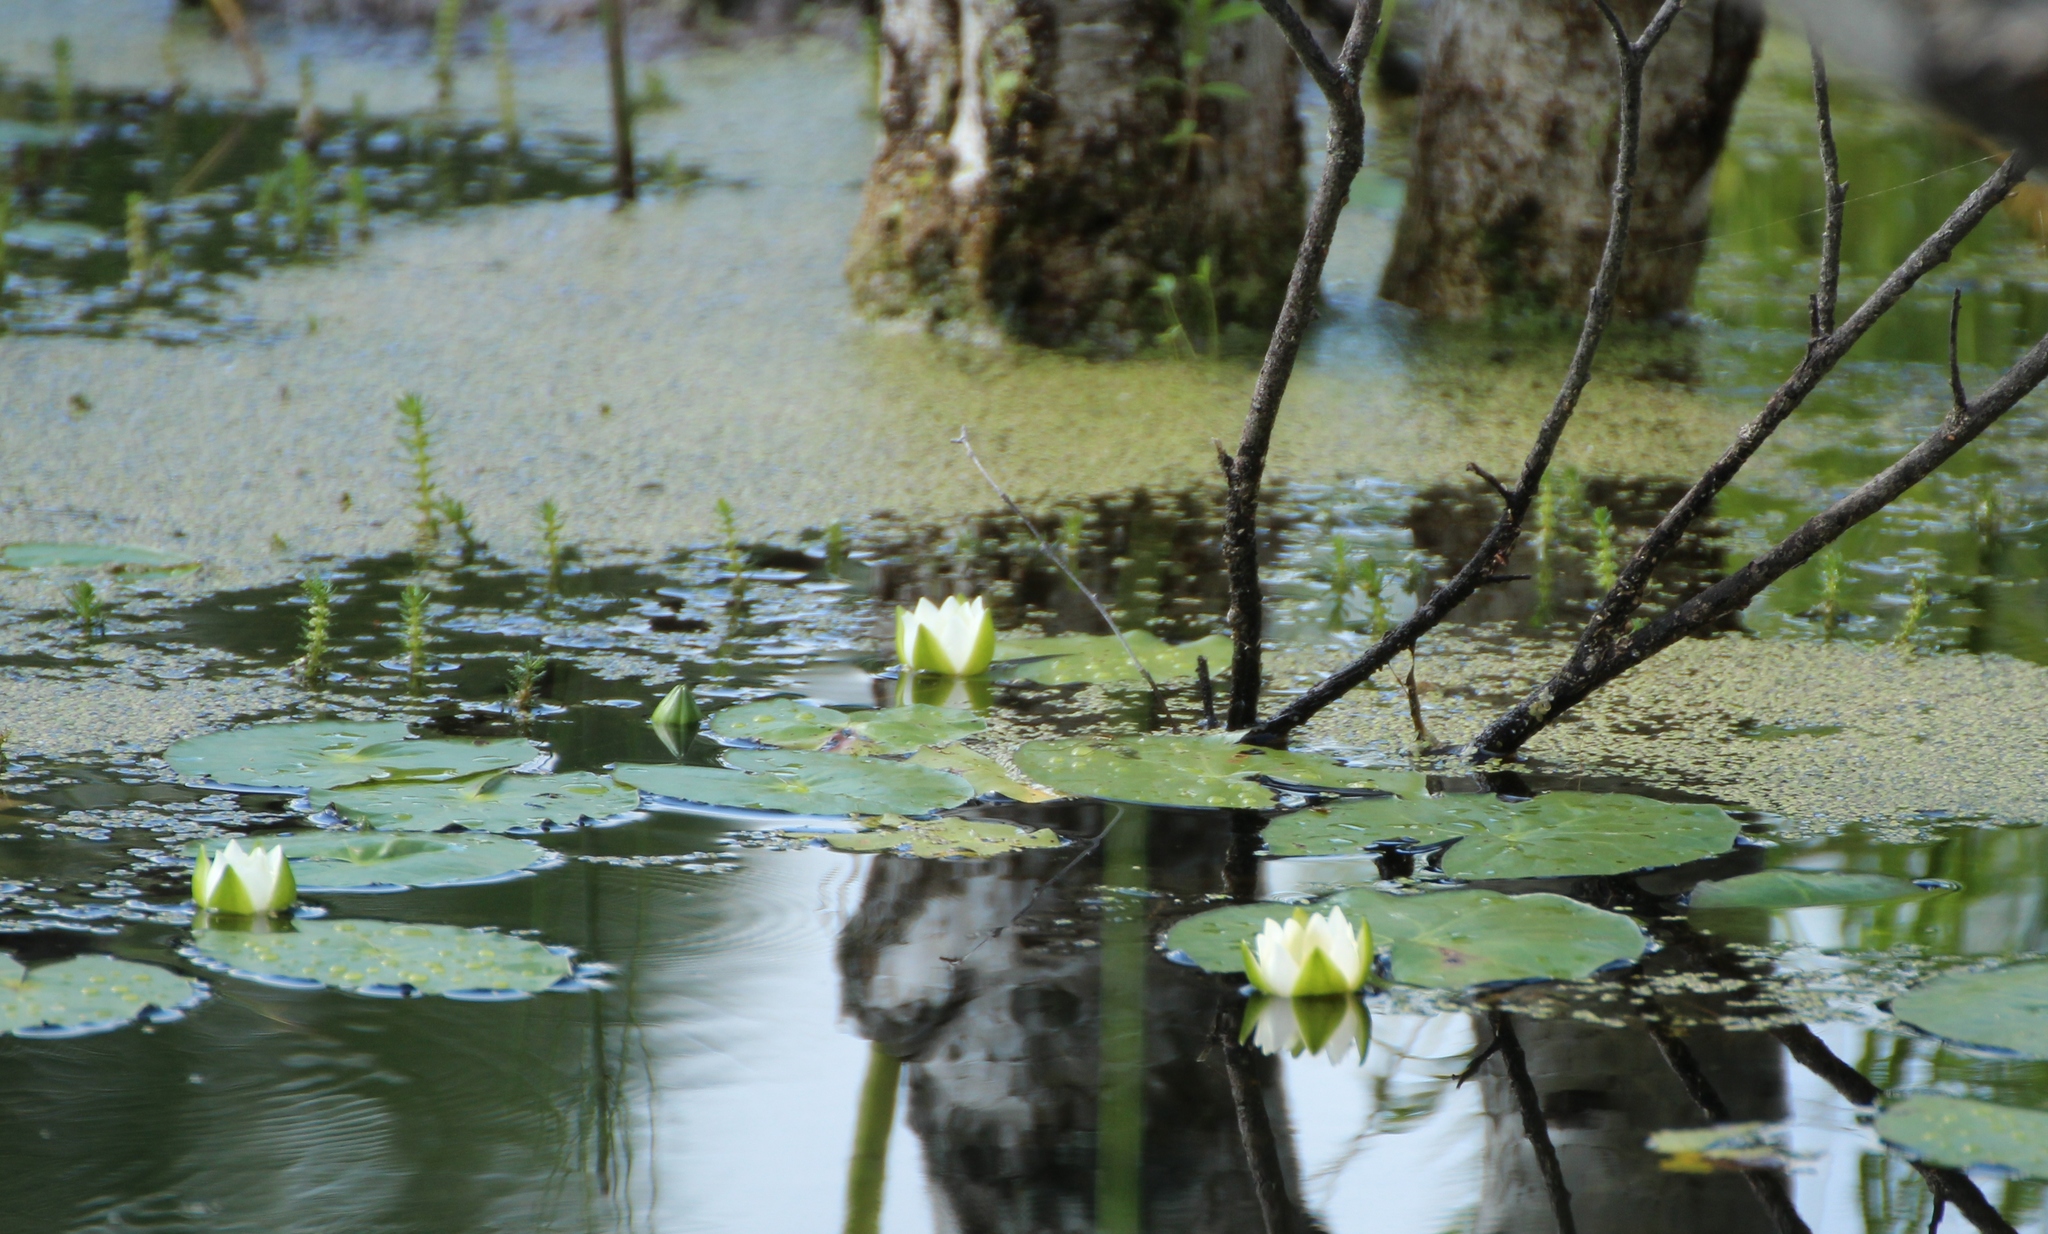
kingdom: Plantae
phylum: Tracheophyta
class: Magnoliopsida
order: Nymphaeales
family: Nymphaeaceae
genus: Nymphaea
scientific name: Nymphaea tetragona
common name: Pygmy water-lily
